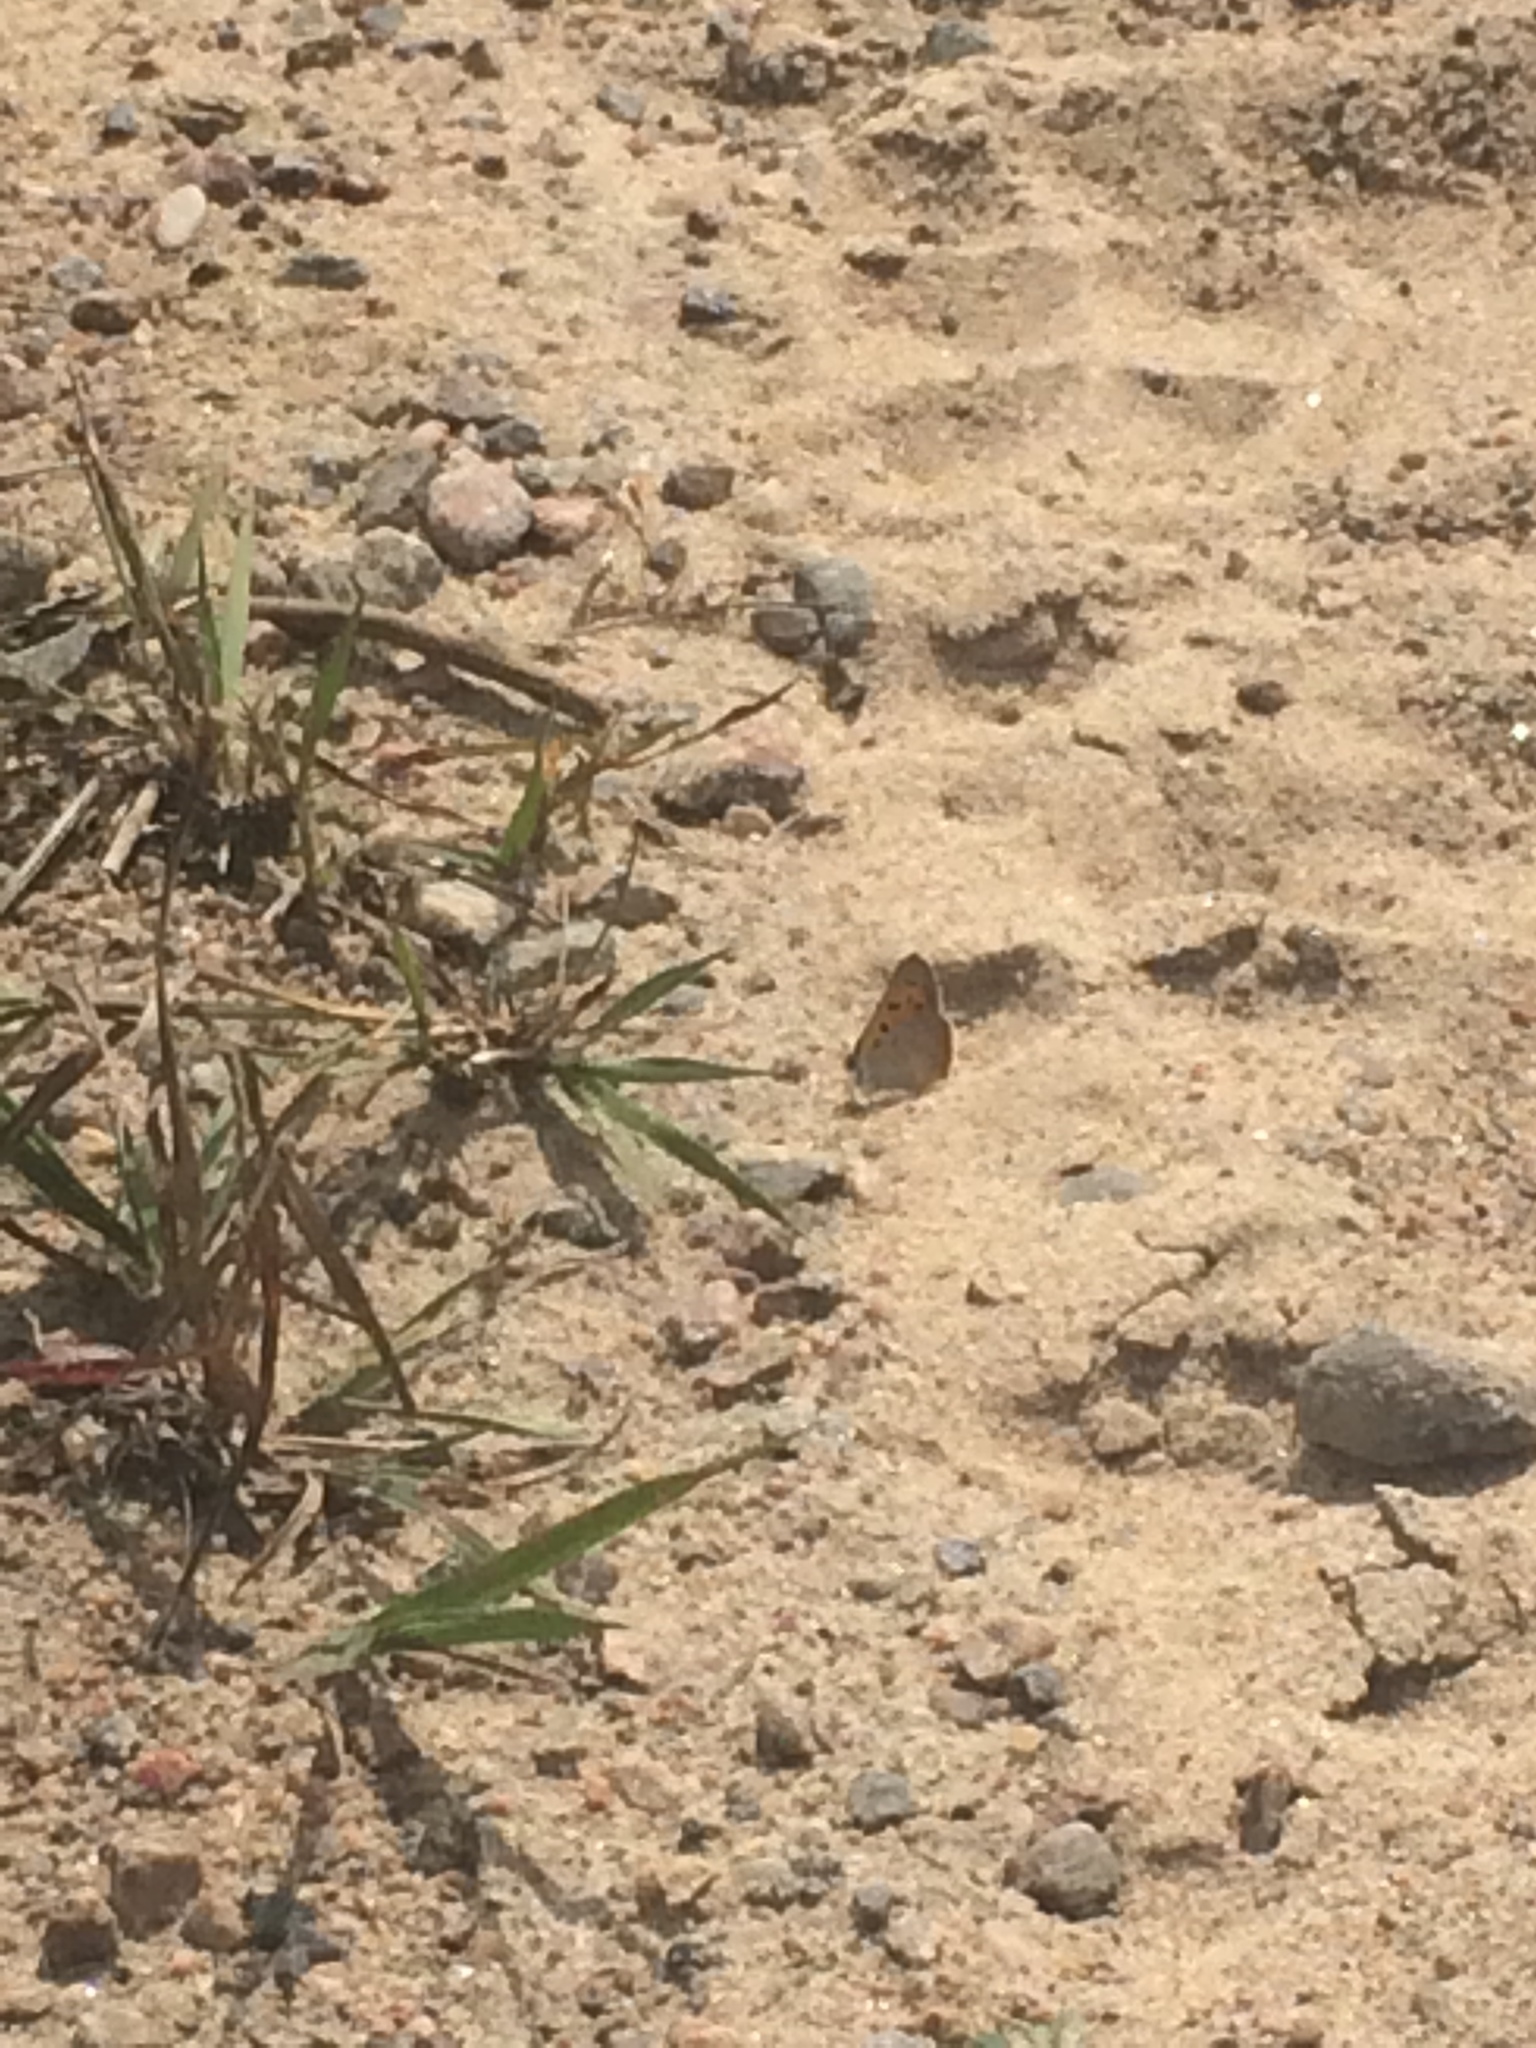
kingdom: Animalia
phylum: Arthropoda
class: Insecta
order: Lepidoptera
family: Lycaenidae
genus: Lycaena
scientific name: Lycaena hypophlaeas
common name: American copper
